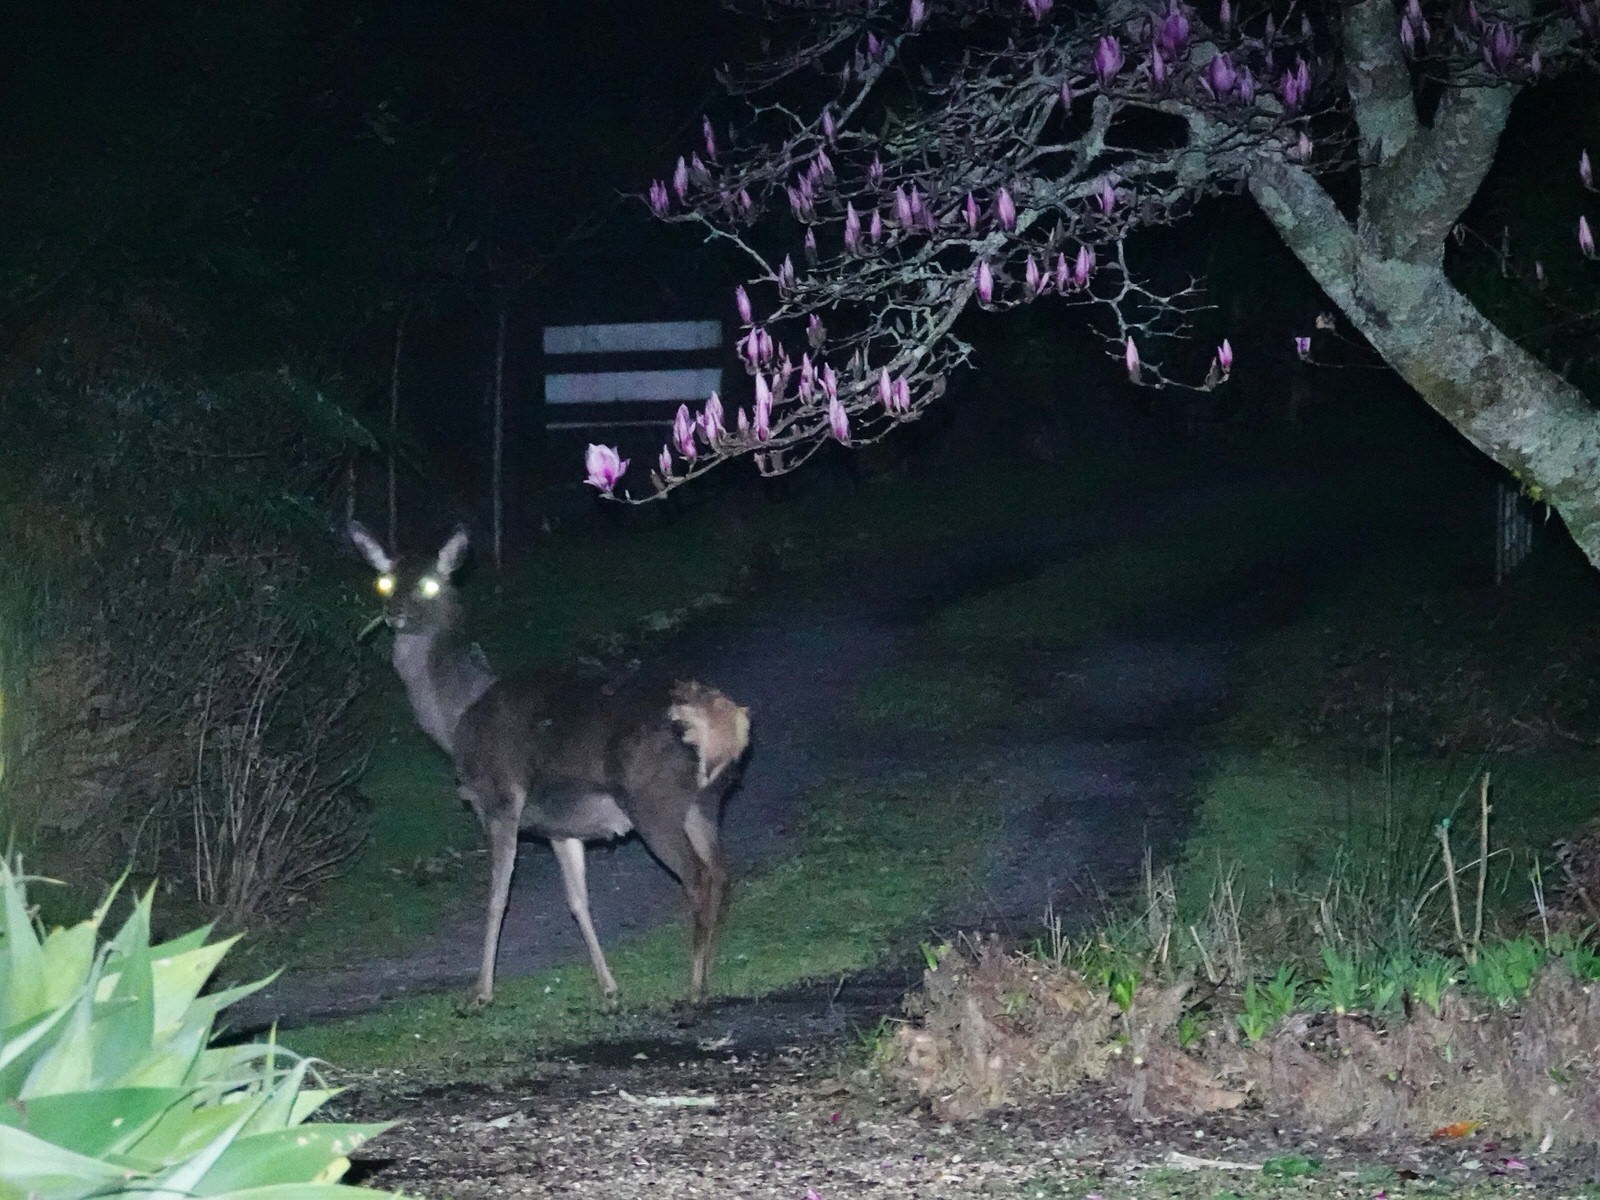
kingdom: Animalia
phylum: Chordata
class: Mammalia
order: Artiodactyla
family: Cervidae
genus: Cervus
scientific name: Cervus elaphus
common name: Red deer
